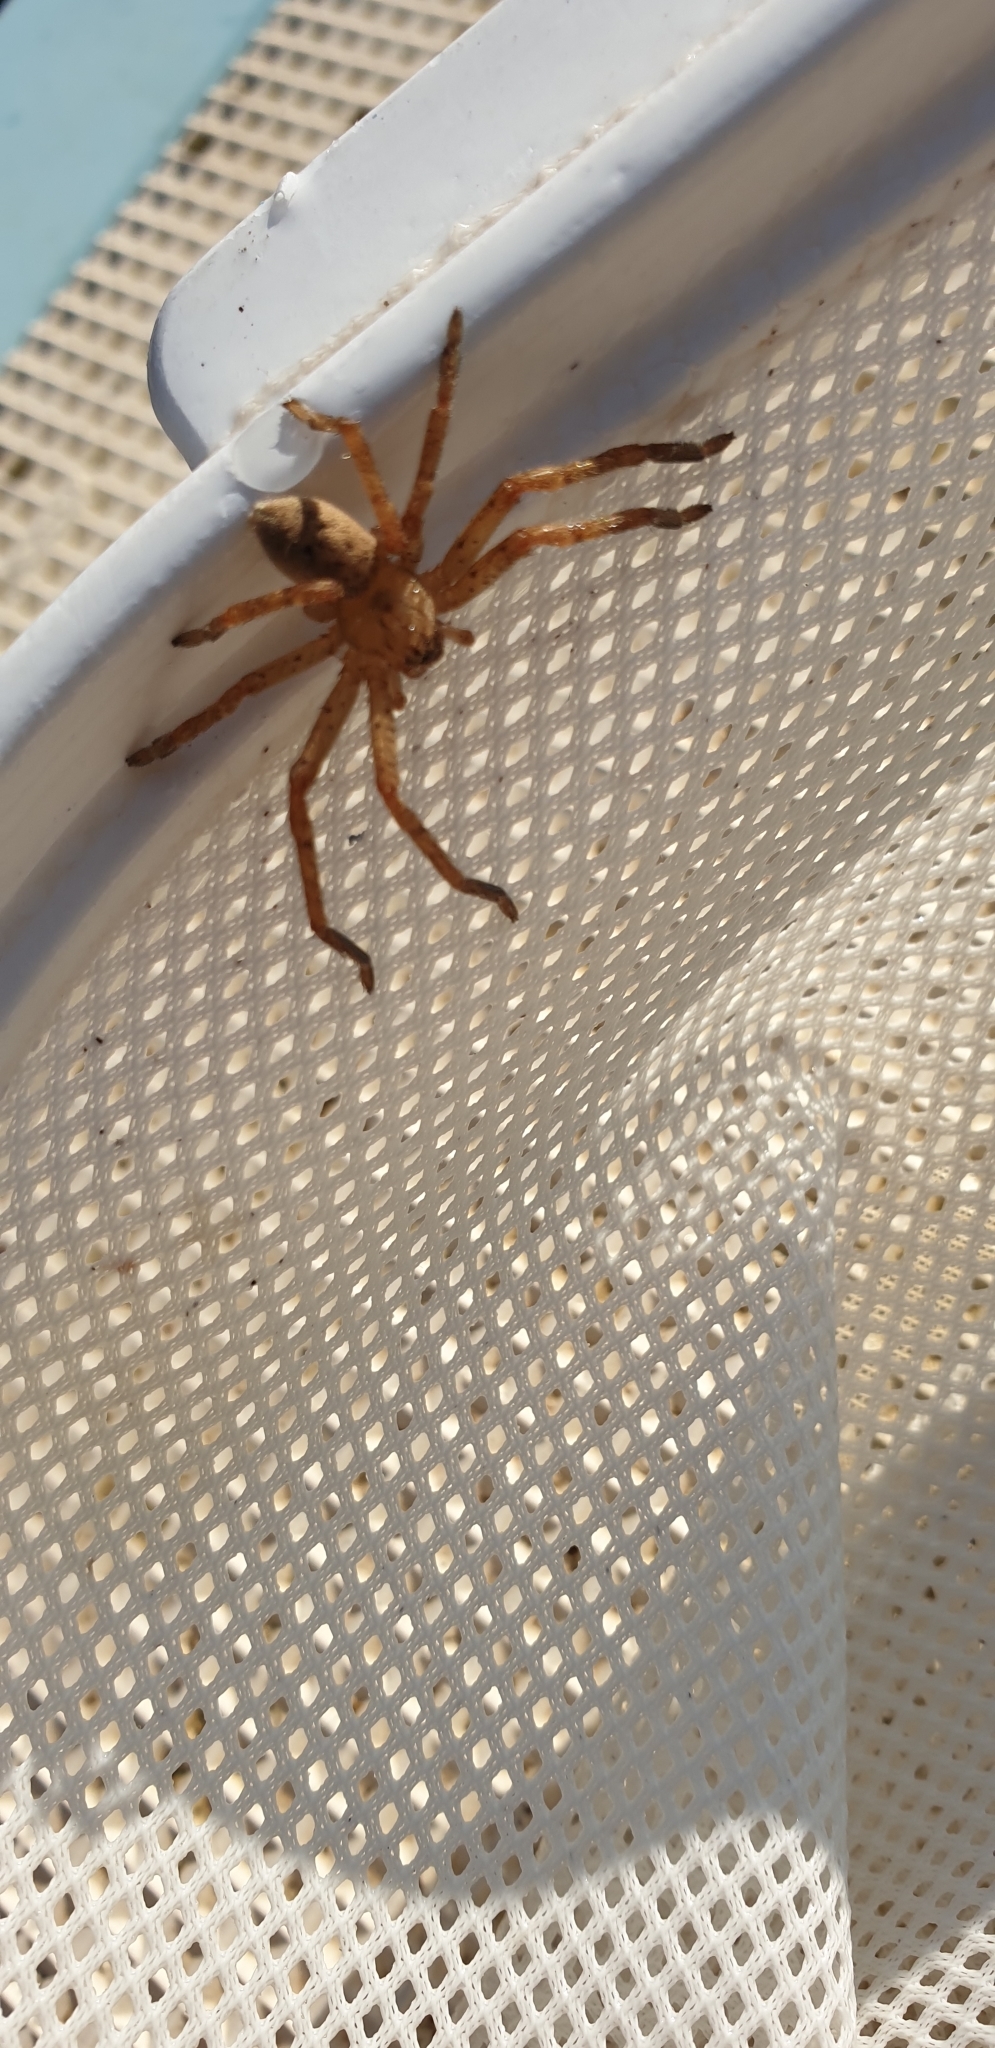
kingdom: Animalia
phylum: Arthropoda
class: Arachnida
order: Araneae
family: Sparassidae
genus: Olios
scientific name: Olios argelasius
